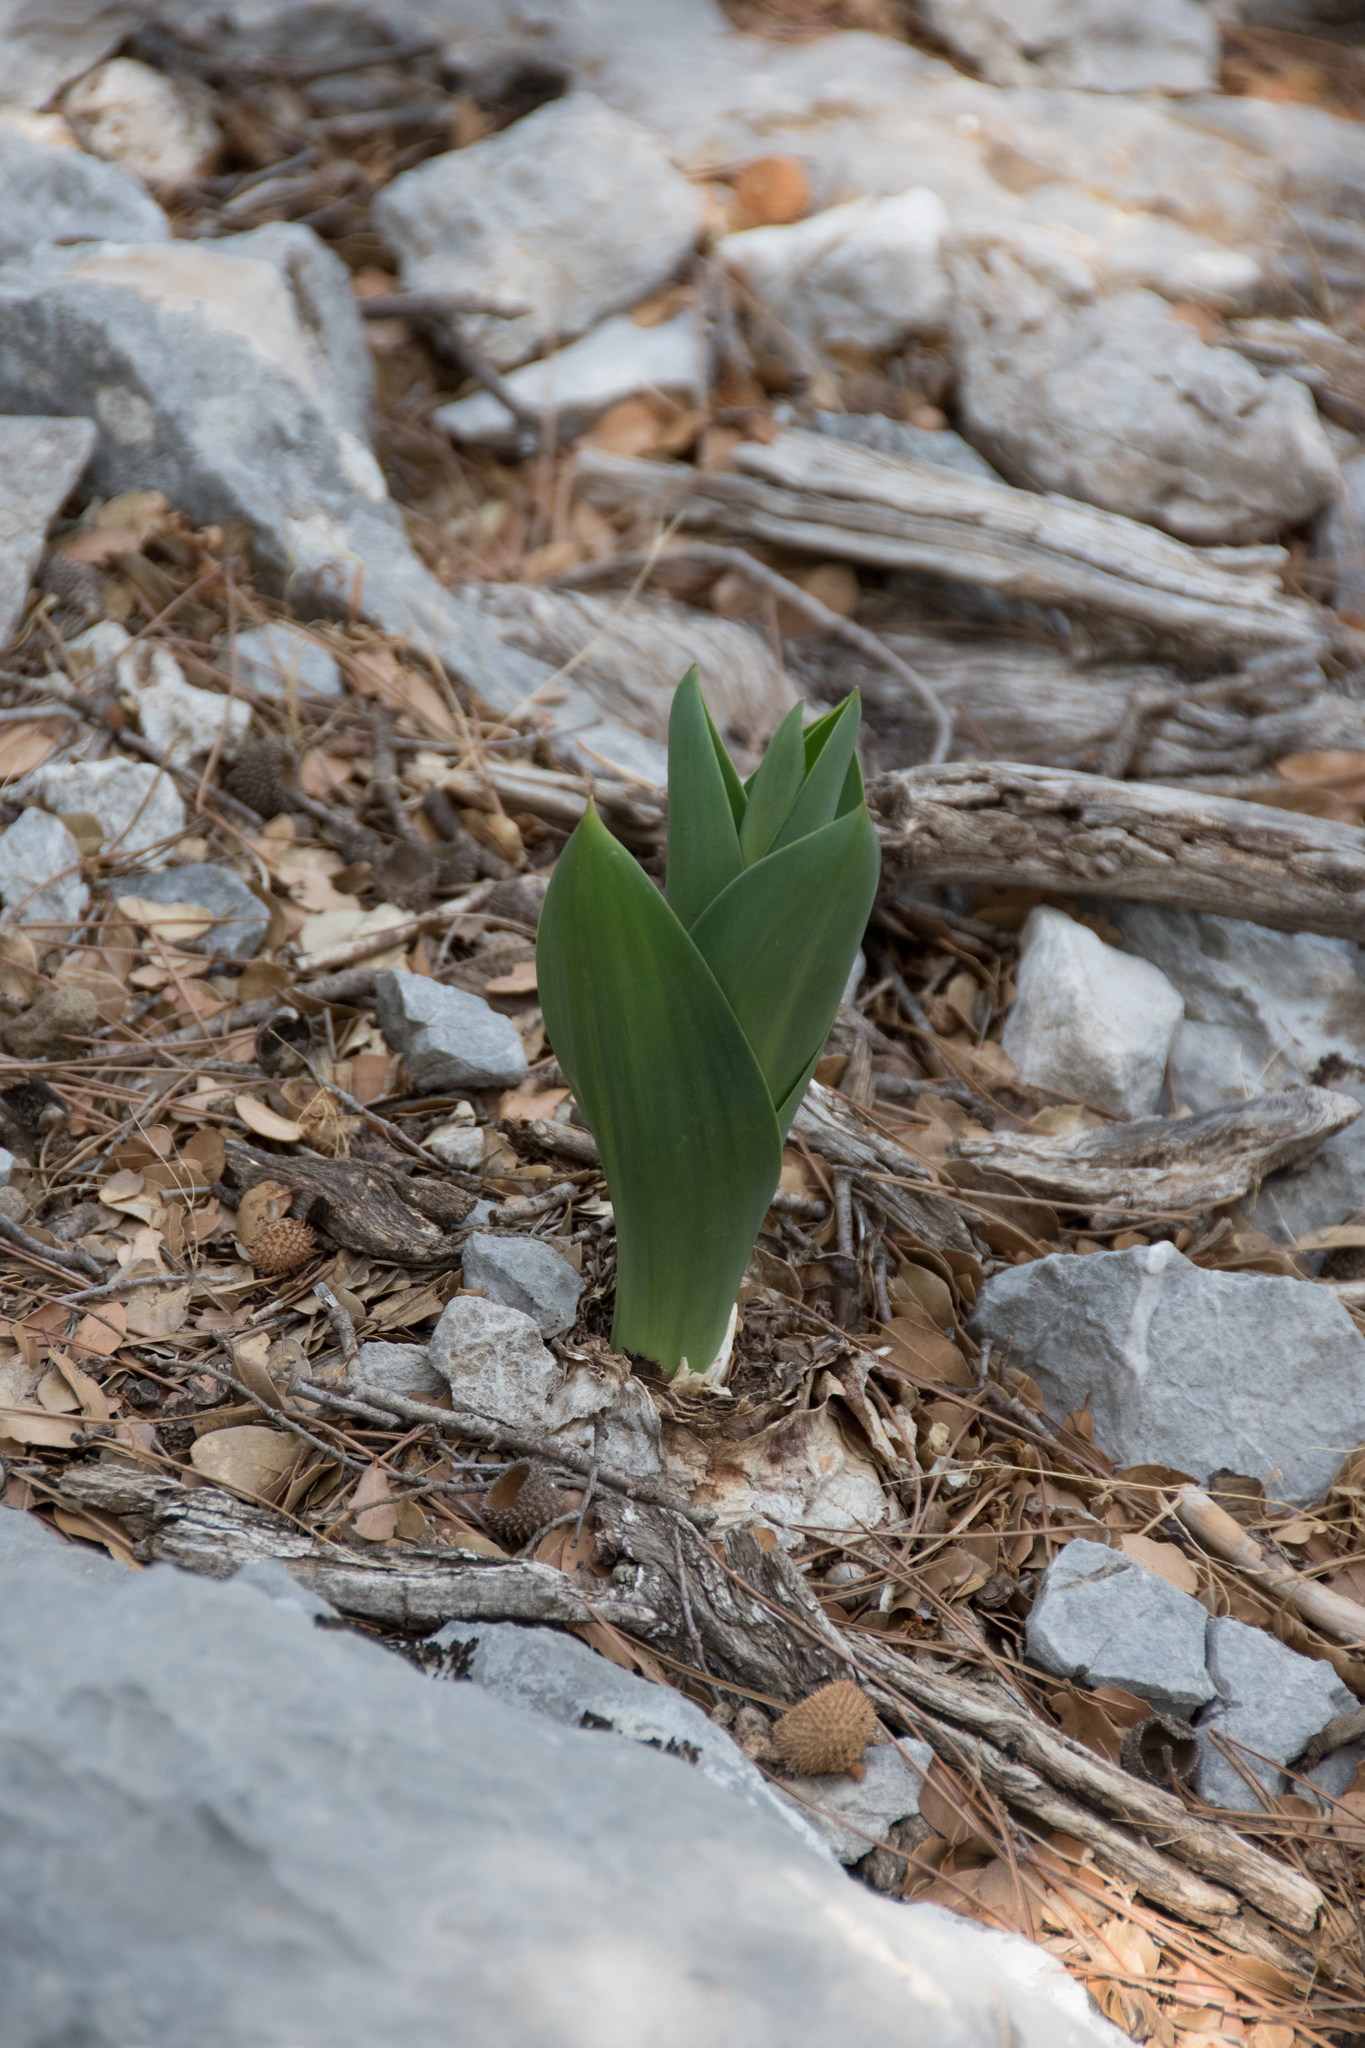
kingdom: Plantae
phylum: Tracheophyta
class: Liliopsida
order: Asparagales
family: Asparagaceae
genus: Drimia
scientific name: Drimia numidica
